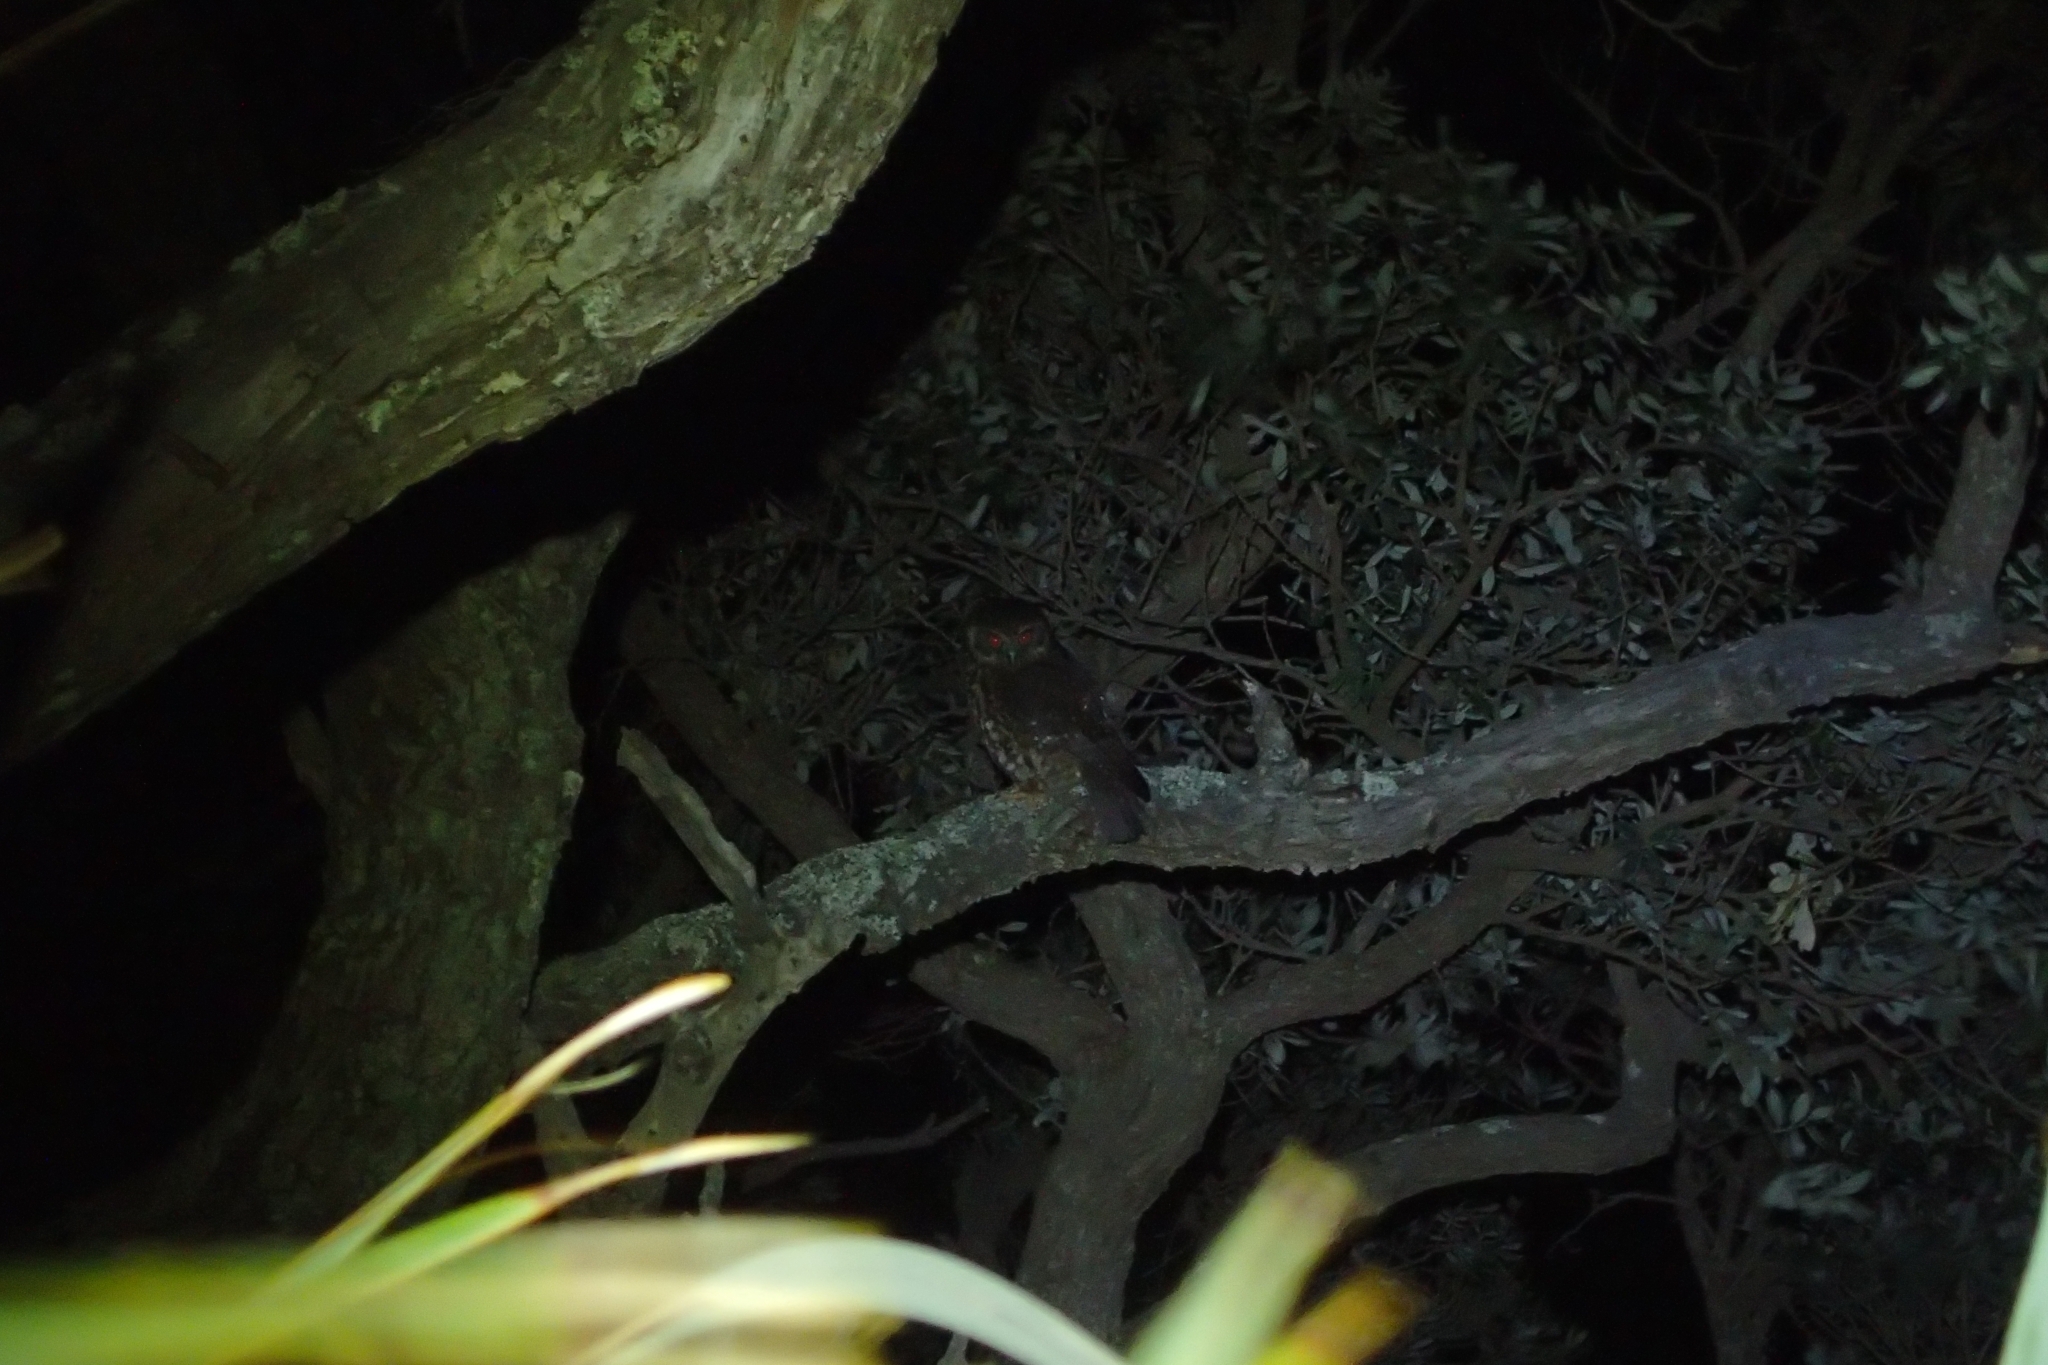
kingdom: Animalia
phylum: Chordata
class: Aves
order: Strigiformes
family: Strigidae
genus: Ninox
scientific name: Ninox novaeseelandiae
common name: Morepork
